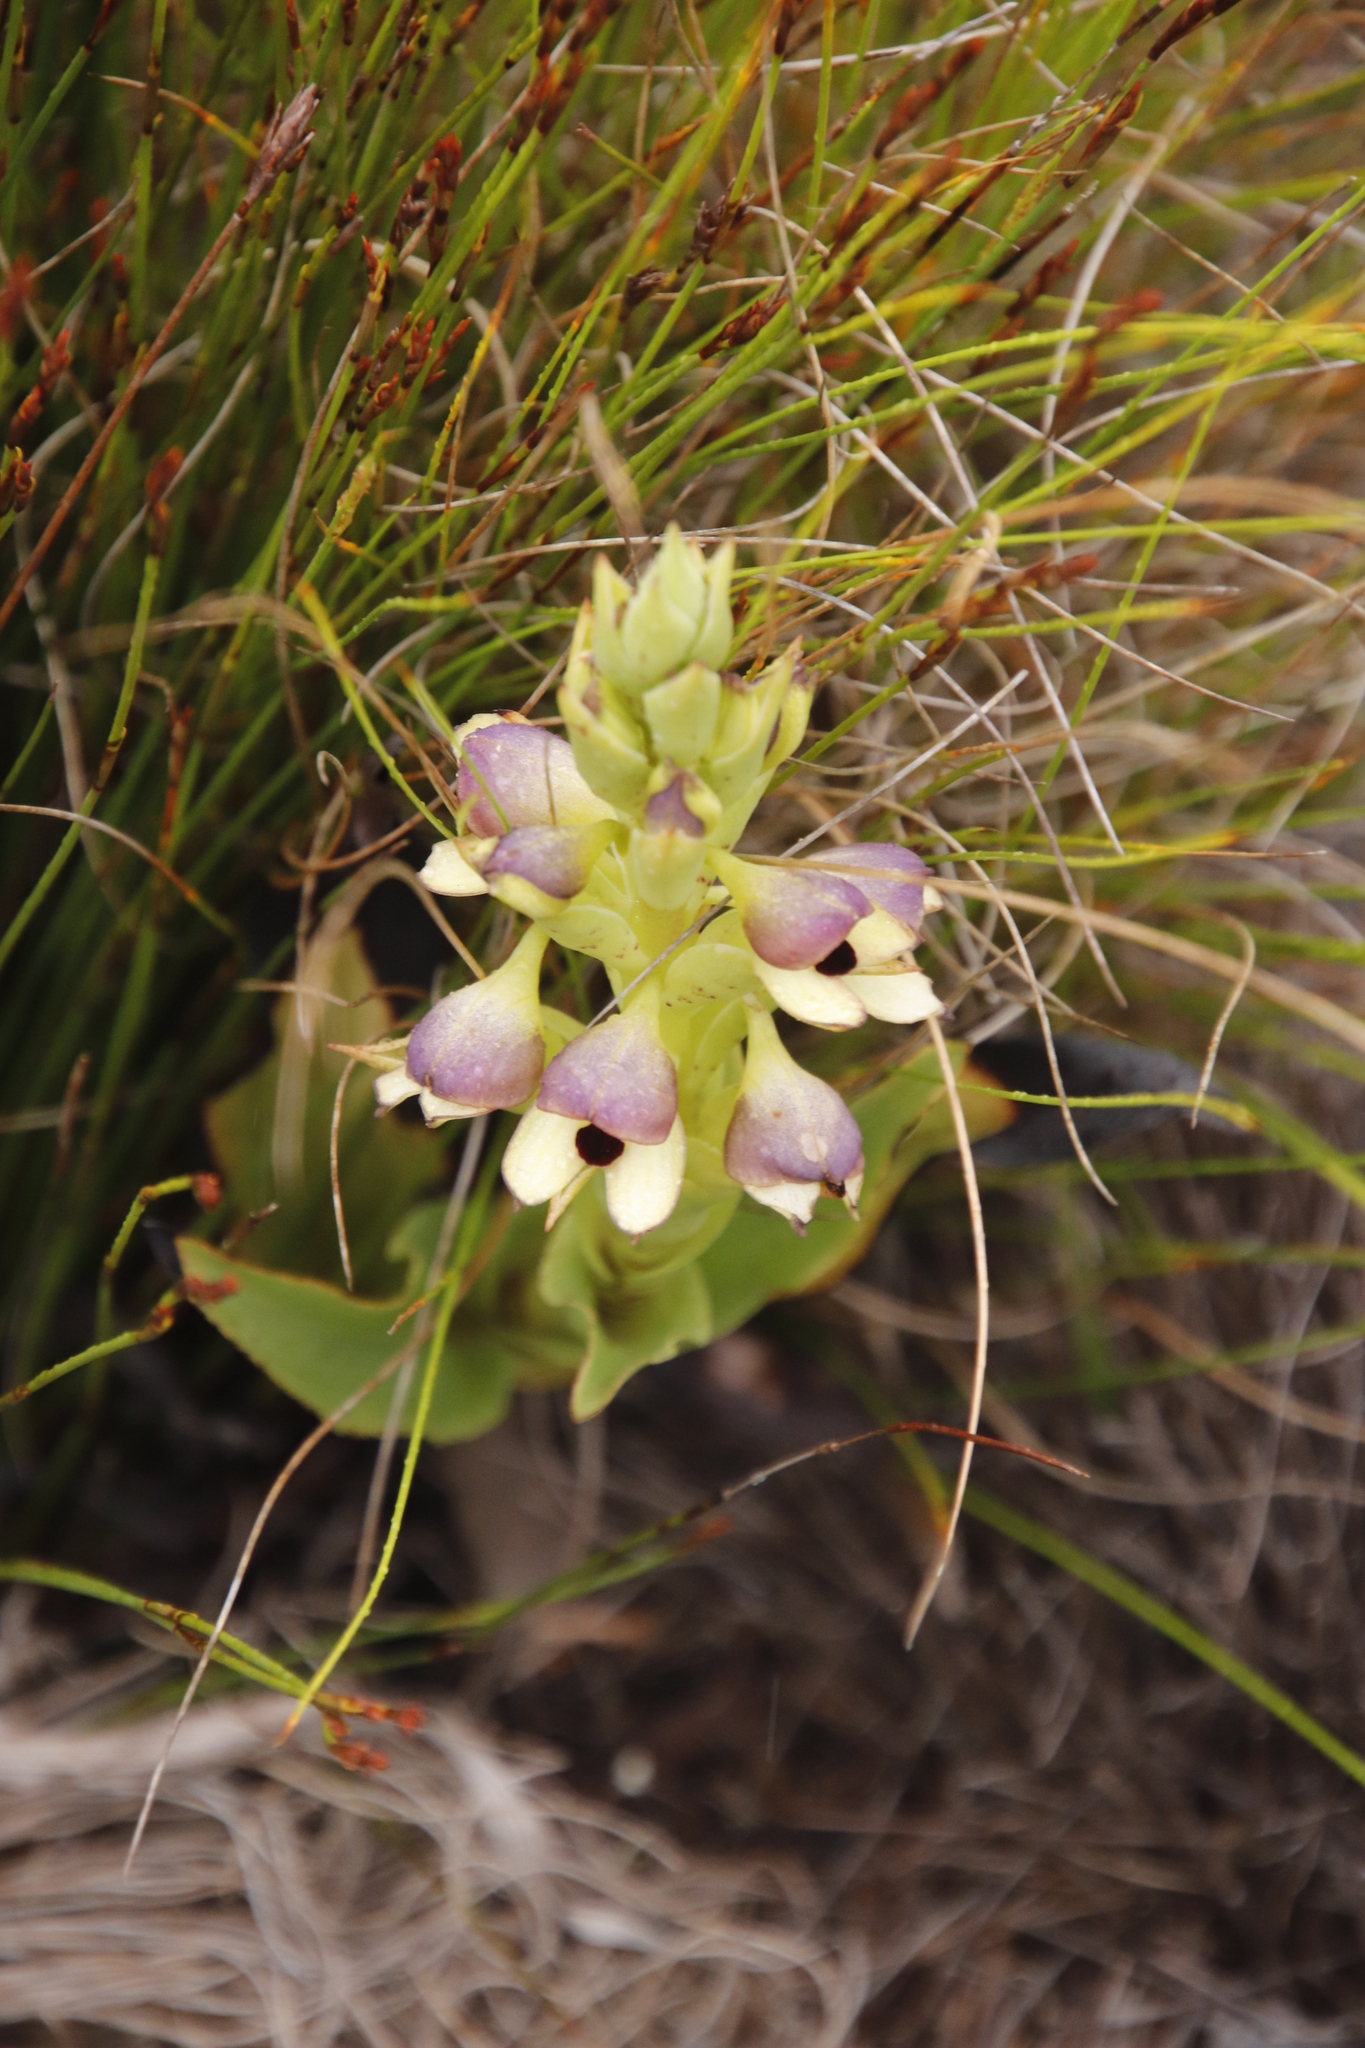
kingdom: Plantae
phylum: Tracheophyta
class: Liliopsida
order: Asparagales
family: Orchidaceae
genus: Disa
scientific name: Disa cornuta
